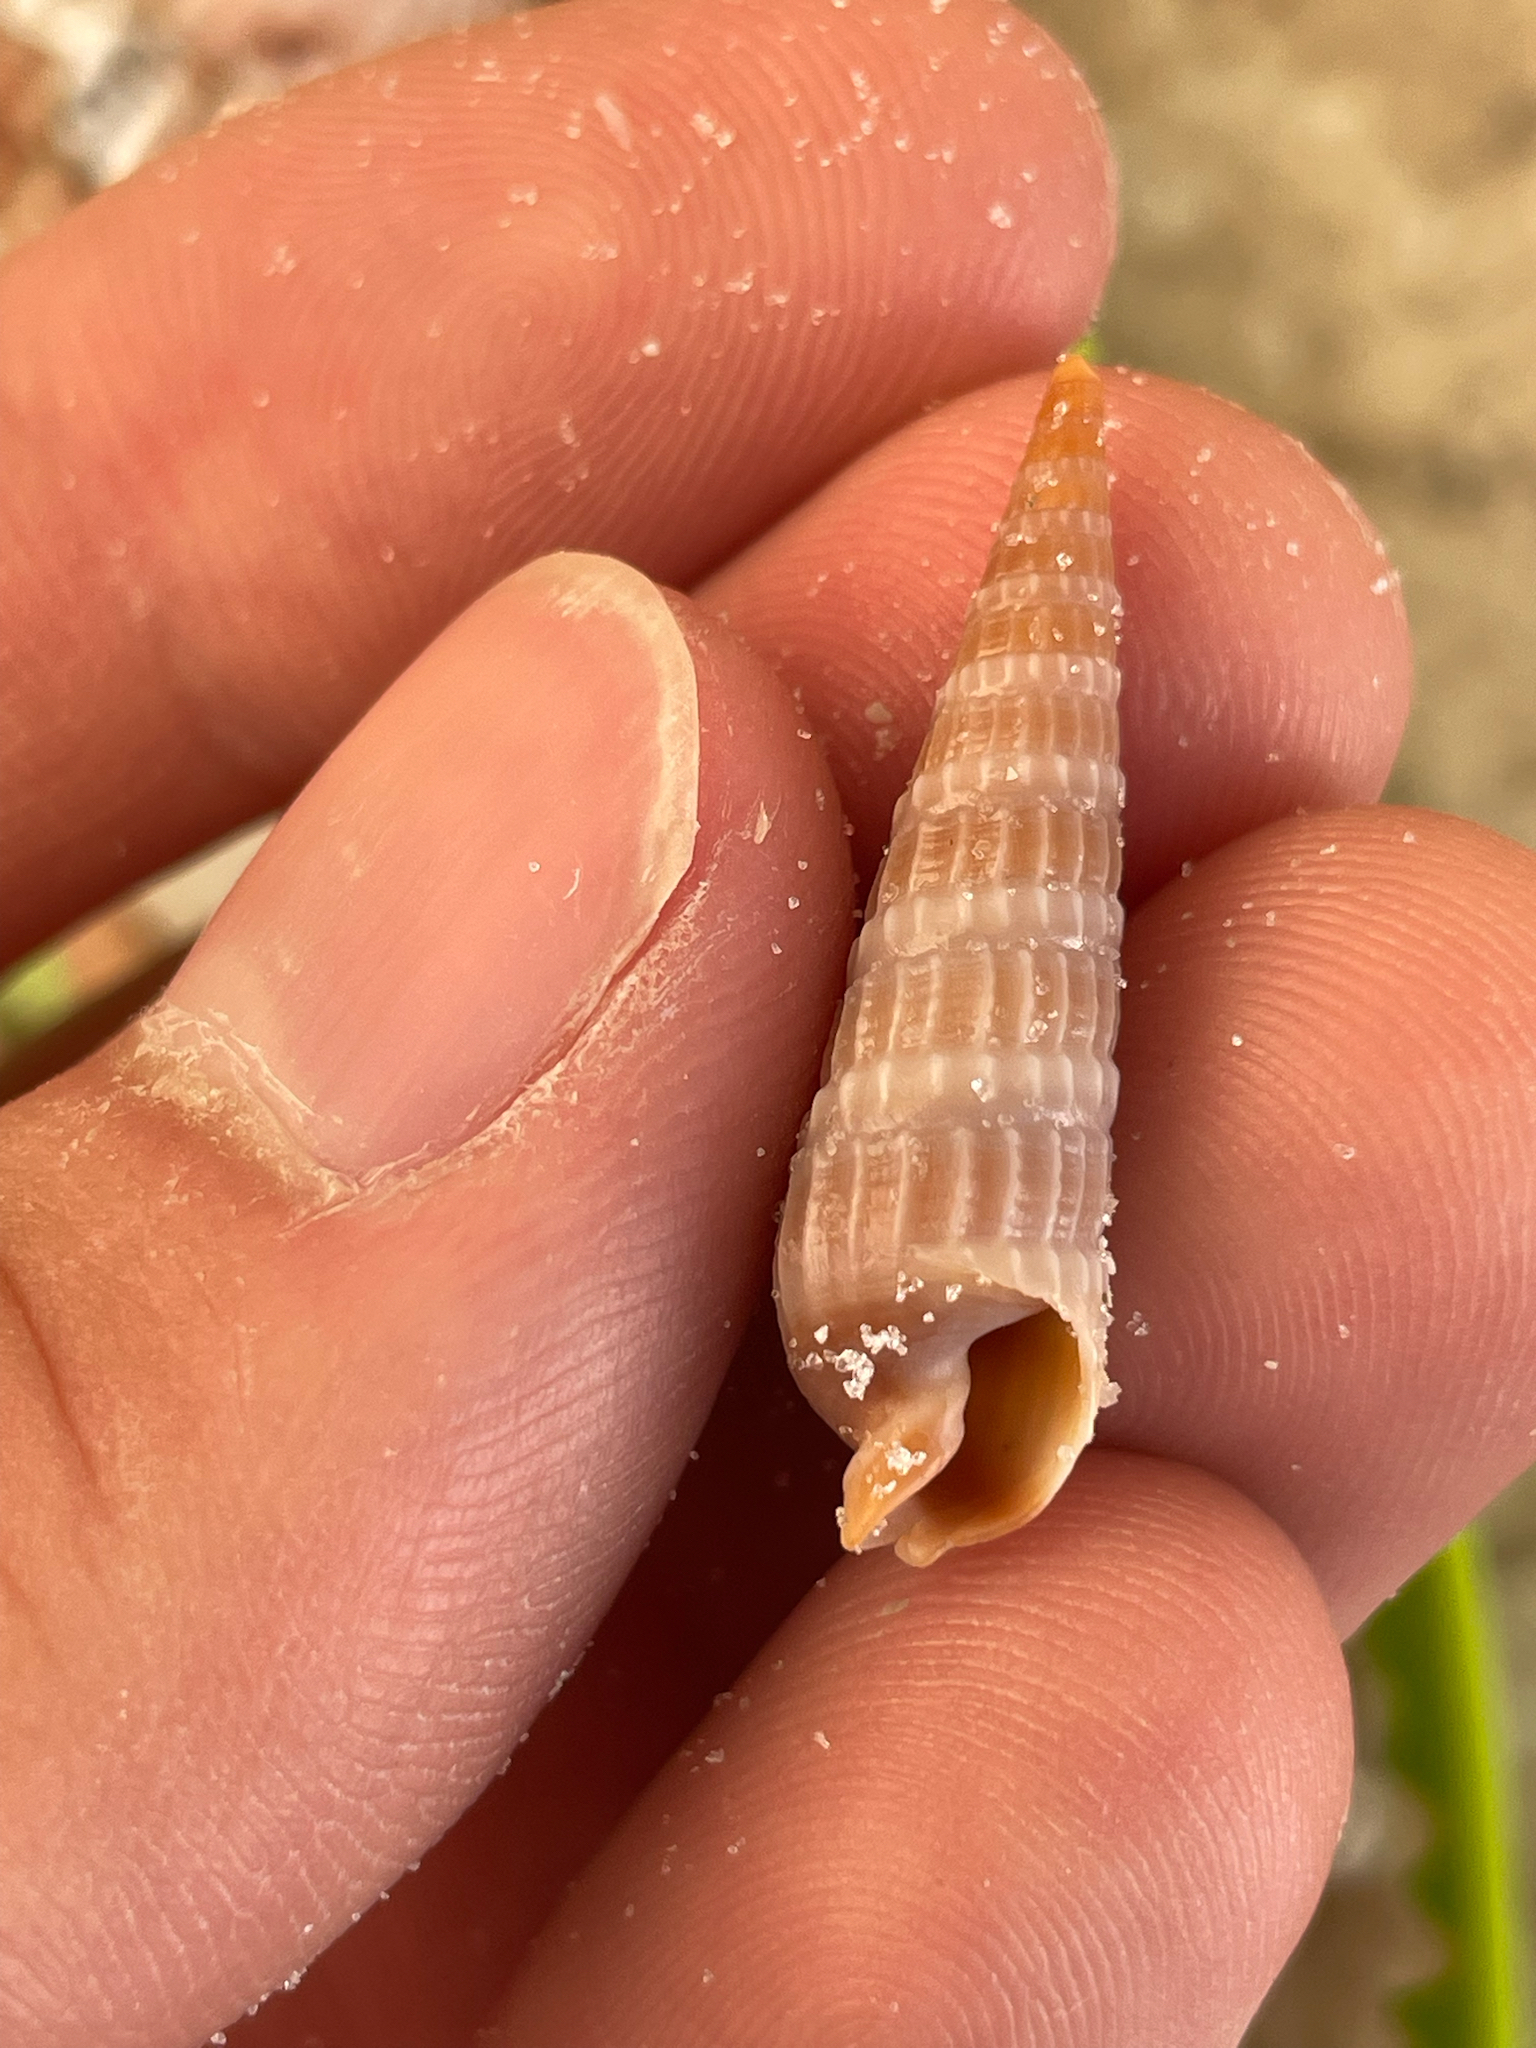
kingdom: Animalia
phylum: Mollusca
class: Gastropoda
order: Neogastropoda
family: Terebridae
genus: Neoterebra
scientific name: Neoterebra dislocata
